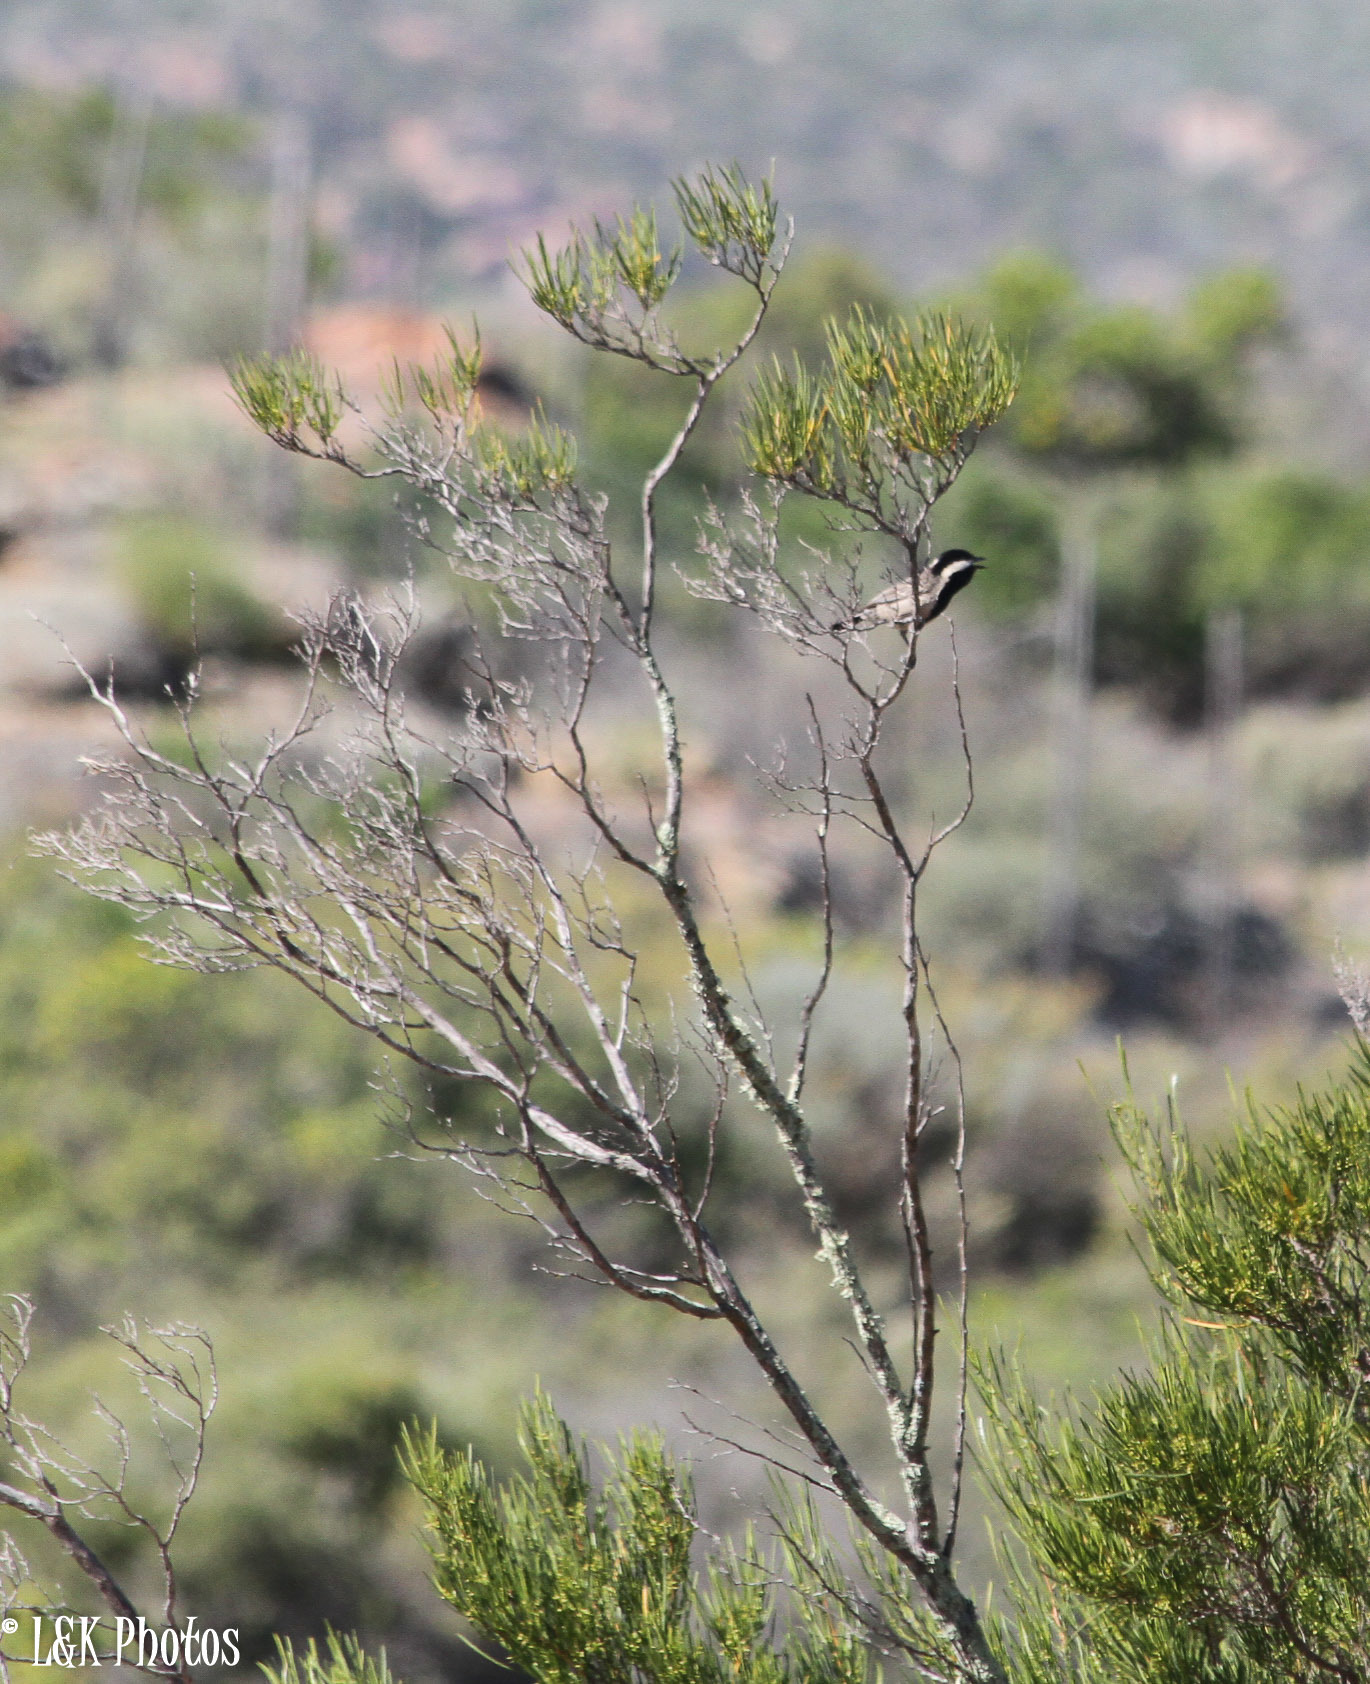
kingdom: Animalia
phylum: Chordata
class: Aves
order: Passeriformes
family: Paridae
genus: Parus
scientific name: Parus afer
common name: Grey tit
